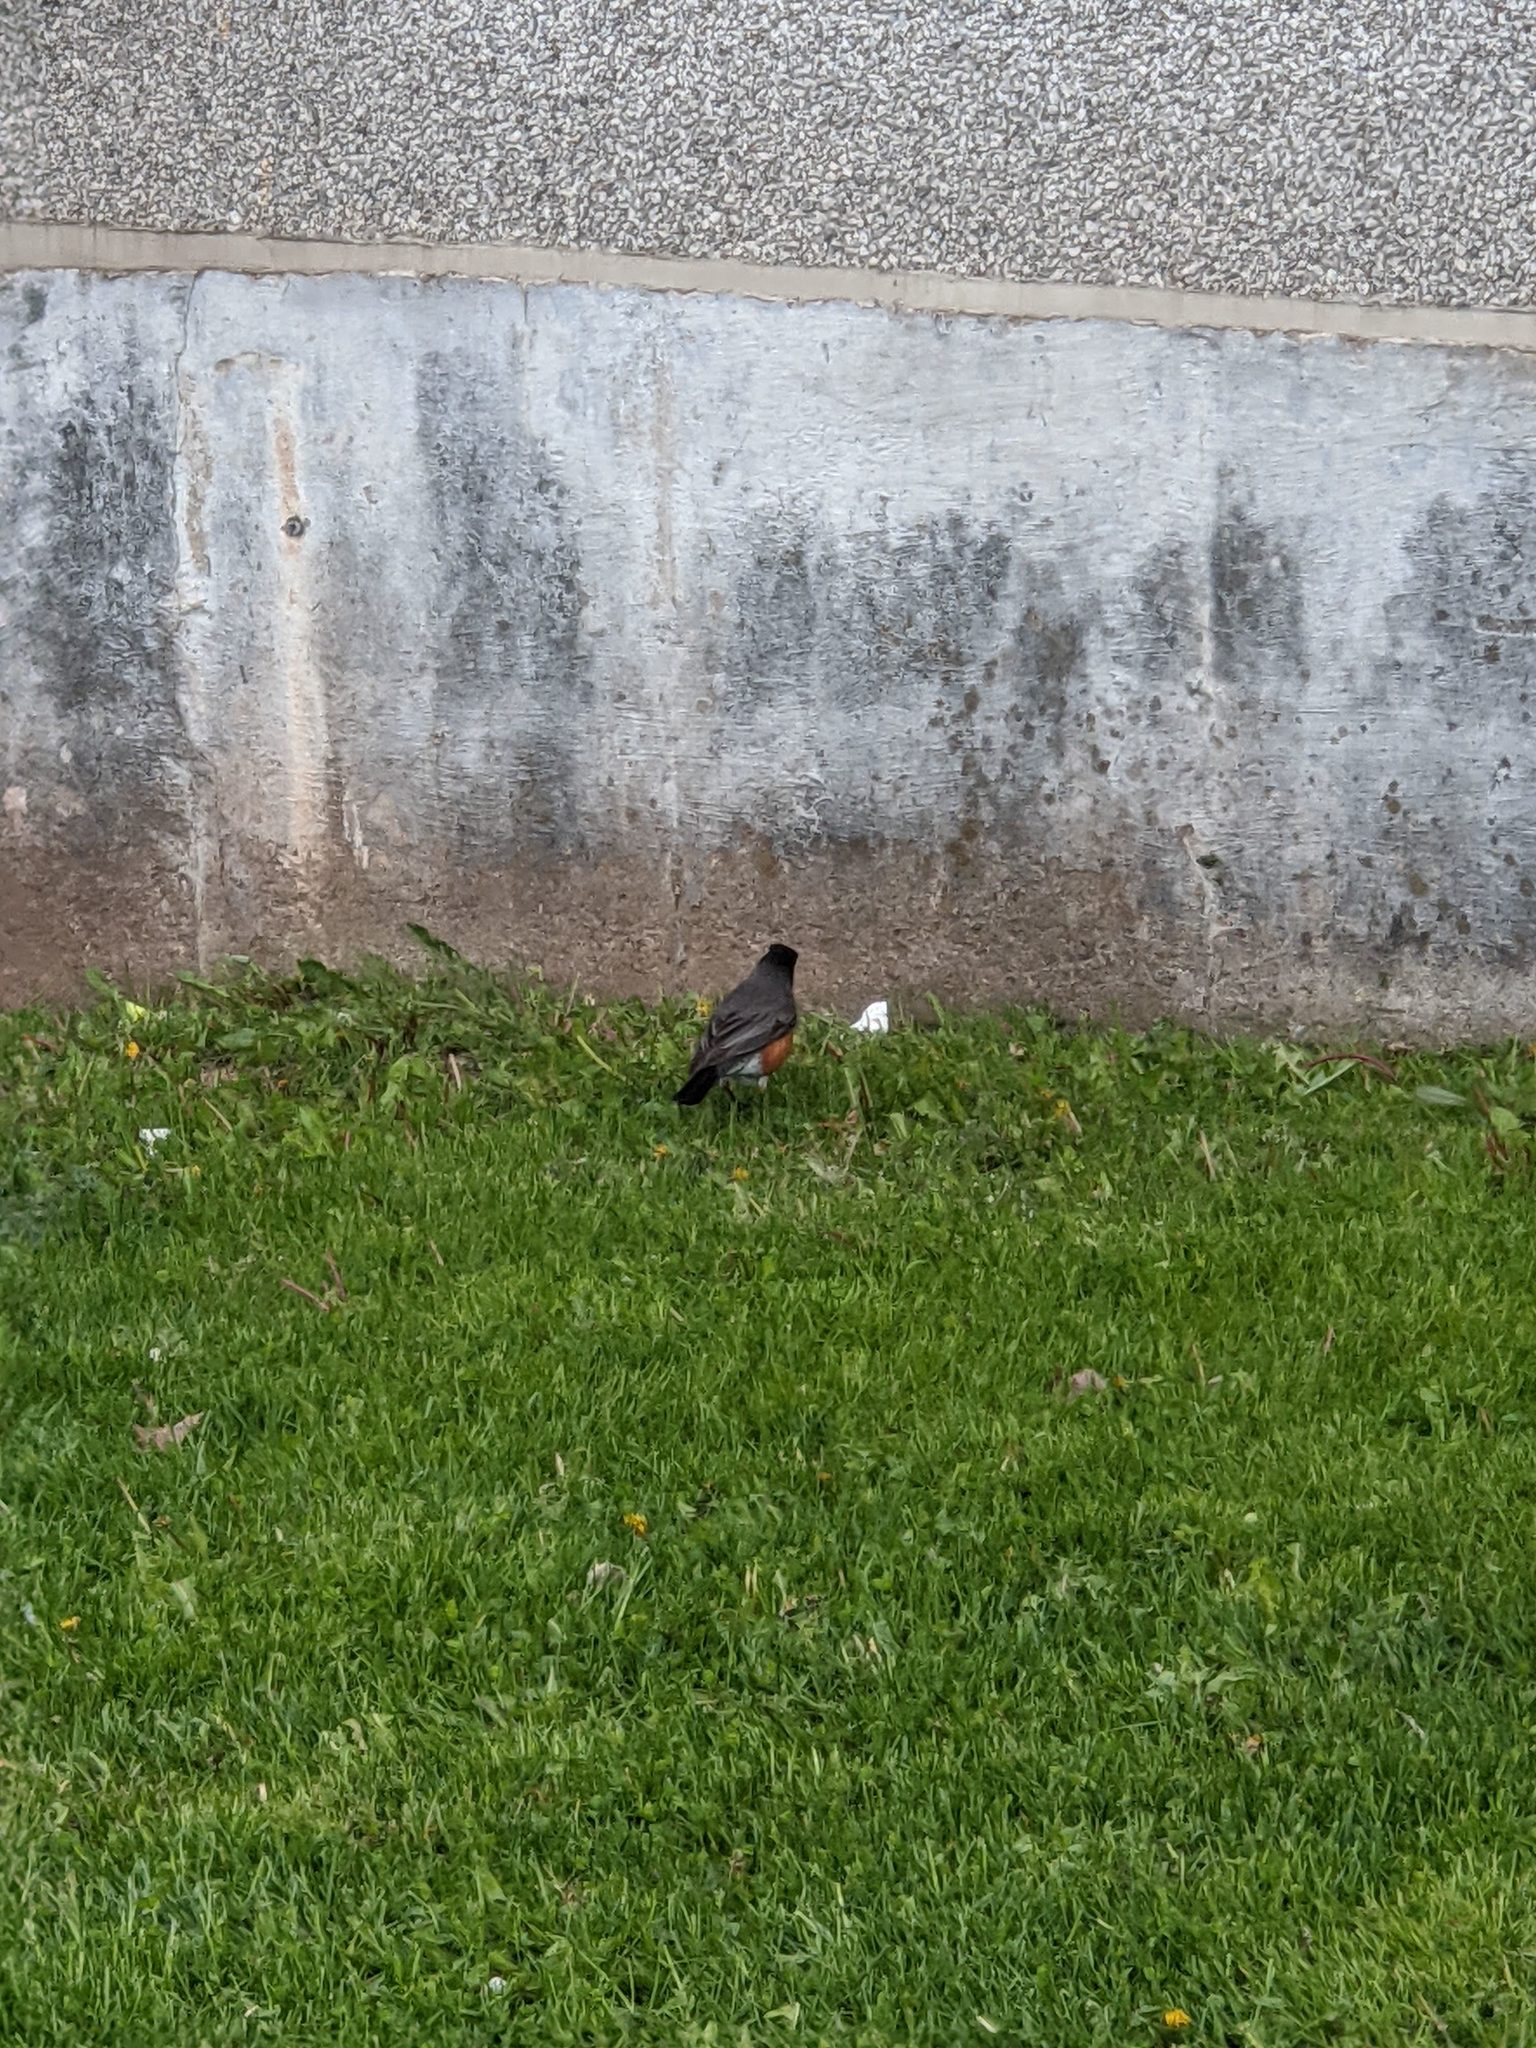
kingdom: Animalia
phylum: Chordata
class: Aves
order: Passeriformes
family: Turdidae
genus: Turdus
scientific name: Turdus migratorius
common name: American robin
